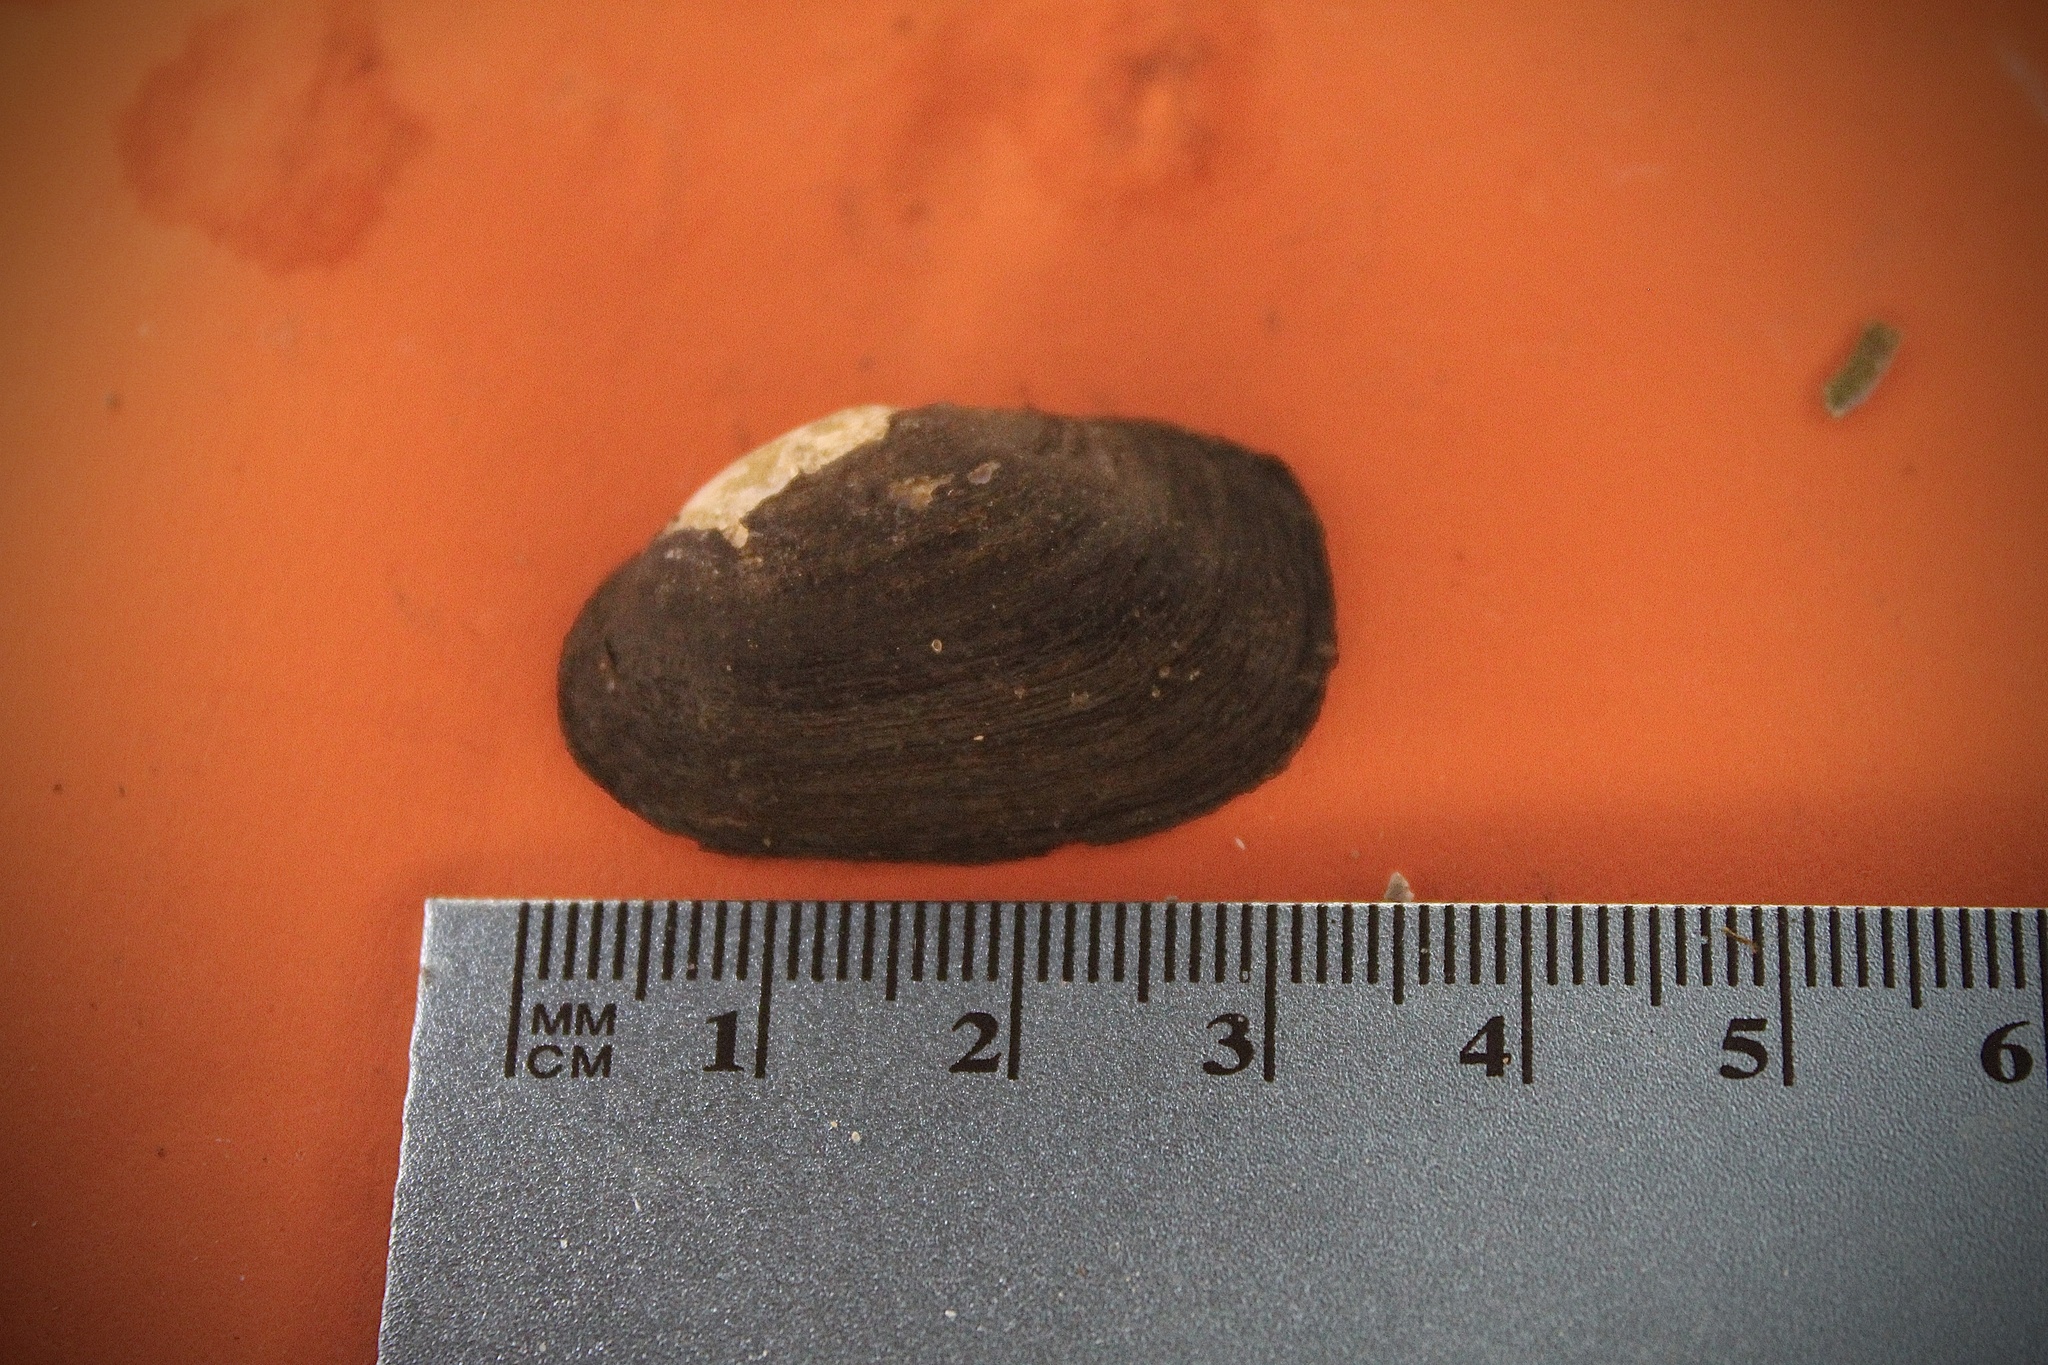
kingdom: Animalia
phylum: Mollusca
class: Bivalvia
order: Unionida
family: Unionidae
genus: Toxolasma
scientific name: Toxolasma parvum
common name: Lilliput
